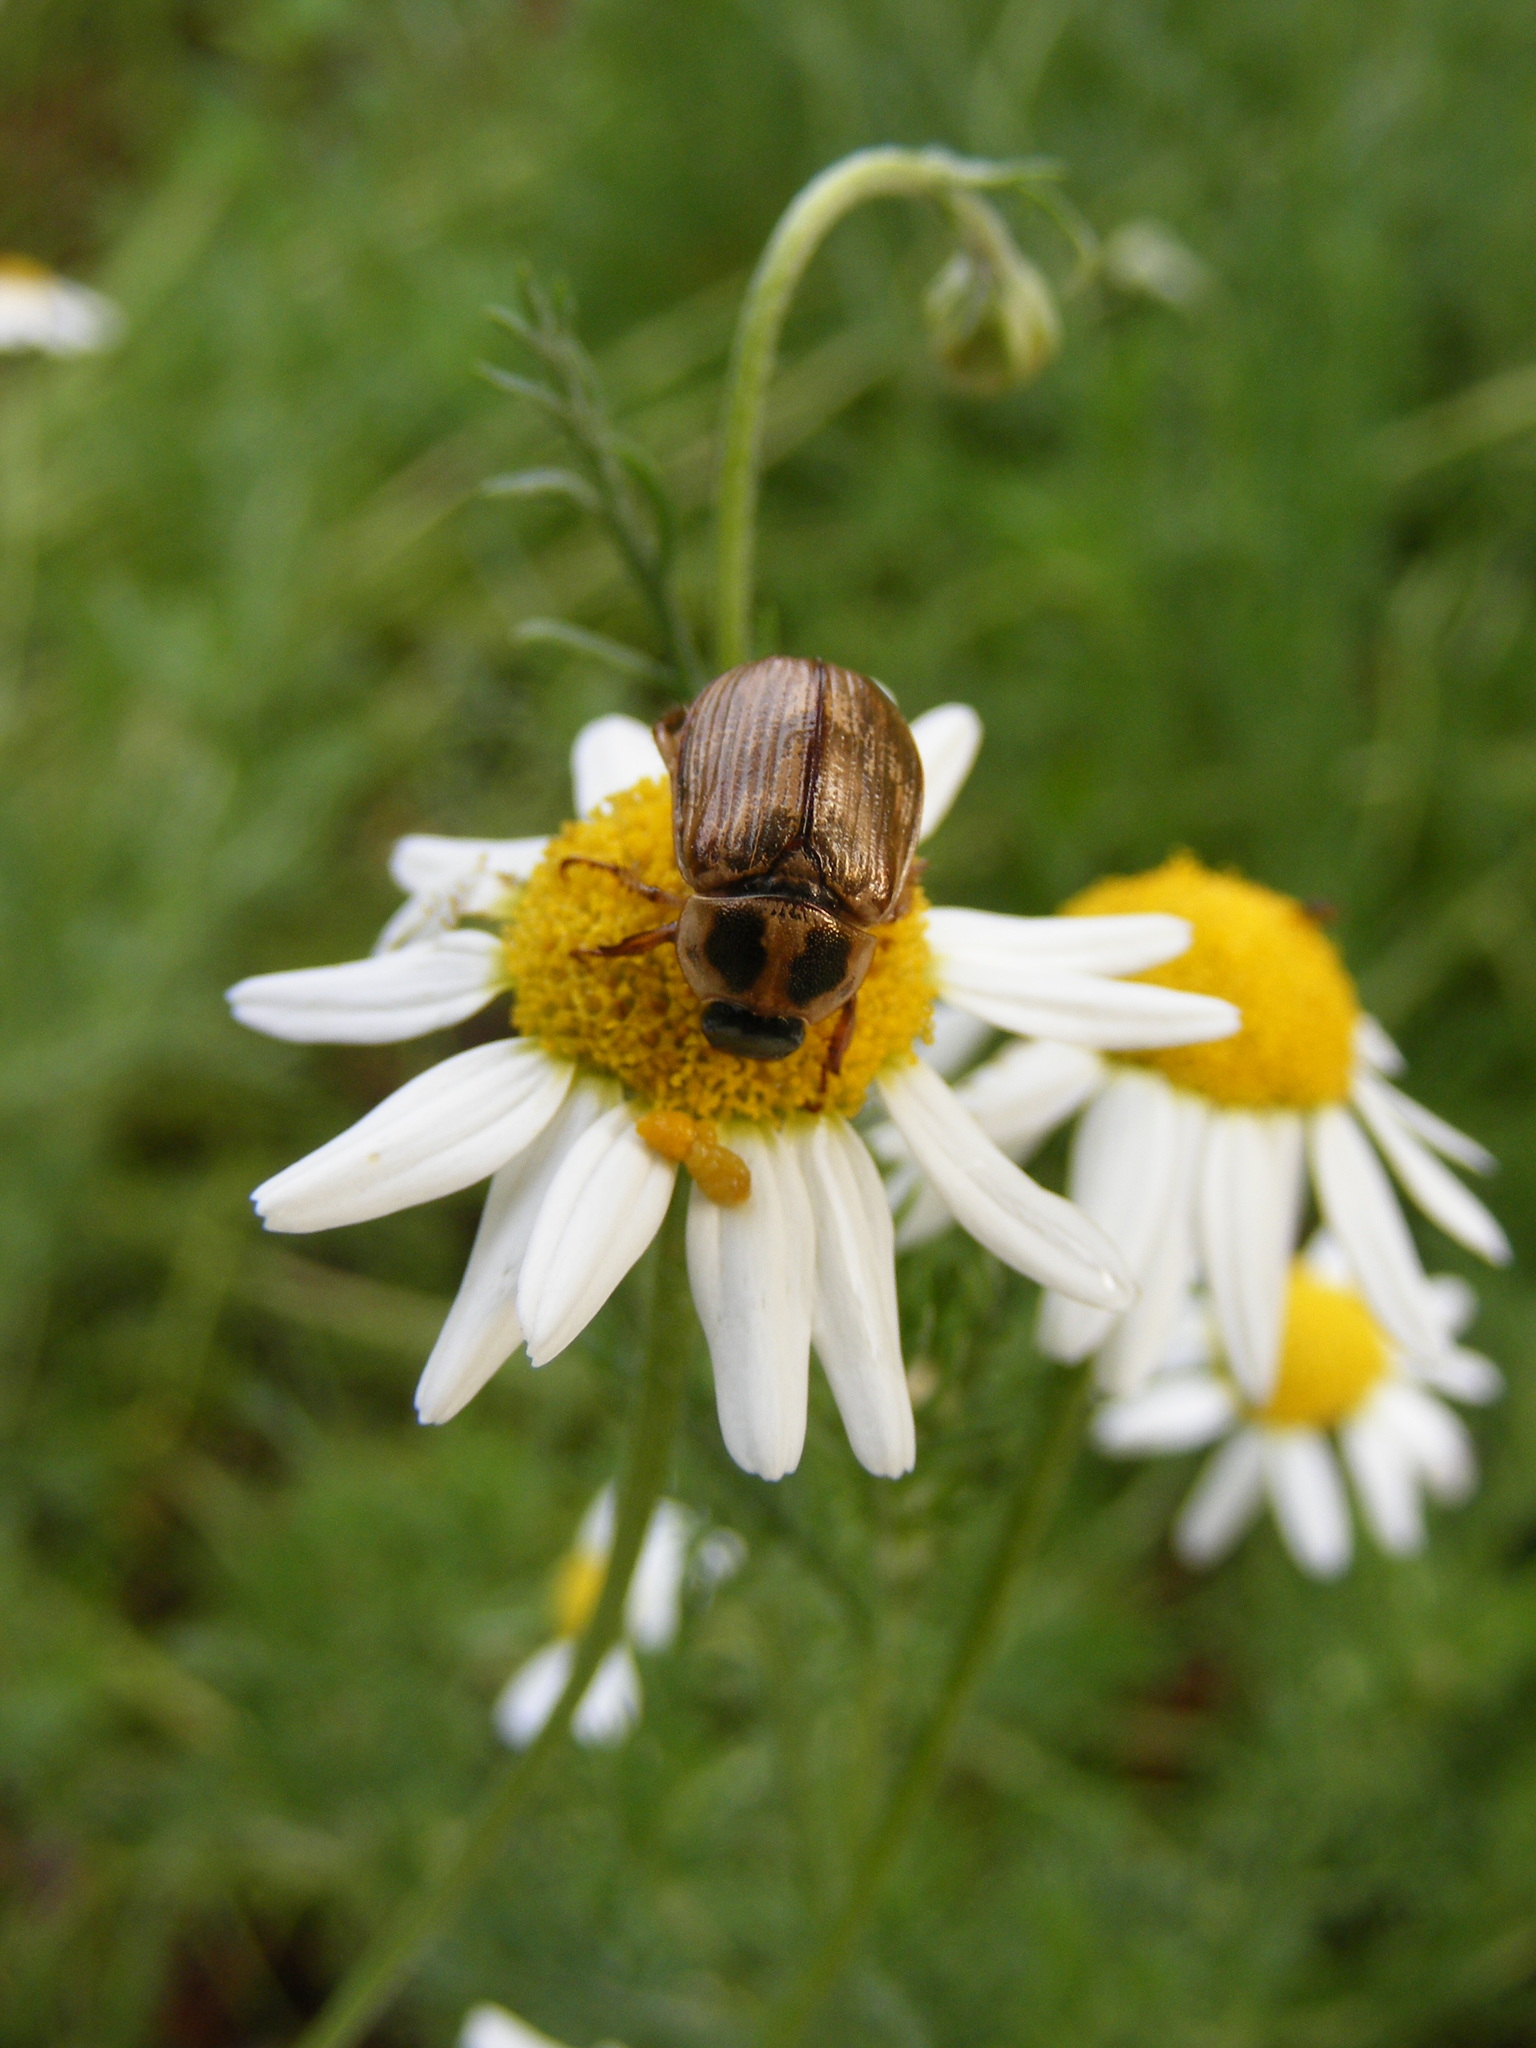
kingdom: Animalia
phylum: Arthropoda
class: Insecta
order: Coleoptera
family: Scarabaeidae
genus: Exomala
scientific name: Exomala orientalis
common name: Oriental beetle
